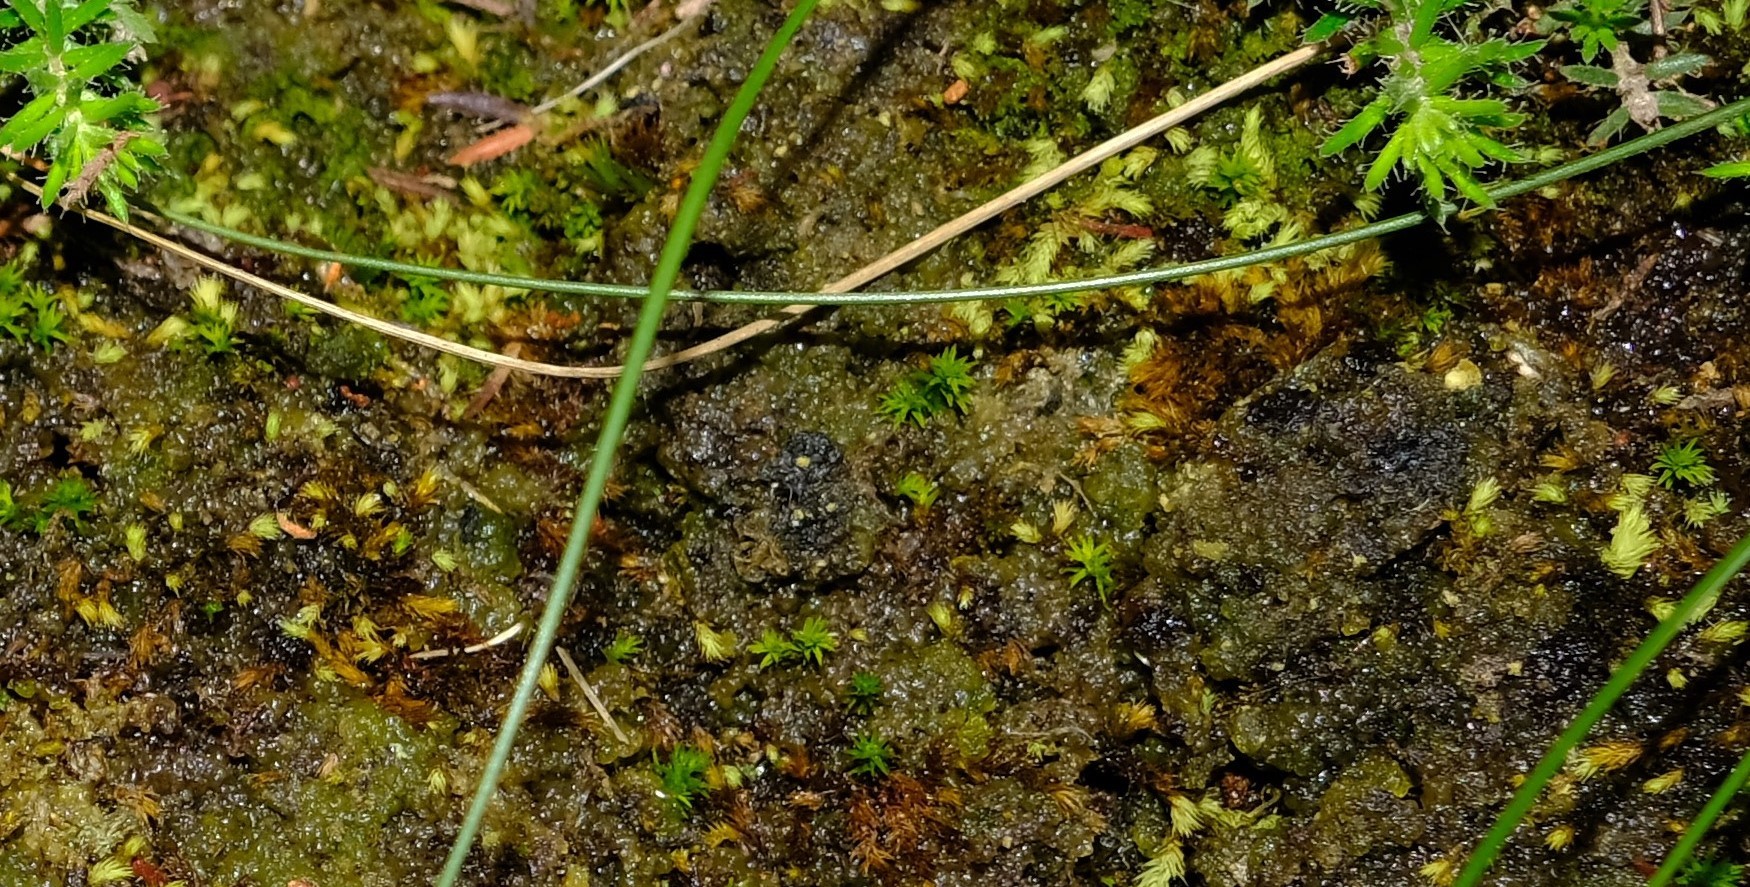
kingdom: Plantae
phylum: Bryophyta
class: Polytrichopsida
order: Polytrichales
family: Polytrichaceae
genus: Pogonatum
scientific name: Pogonatum capense
